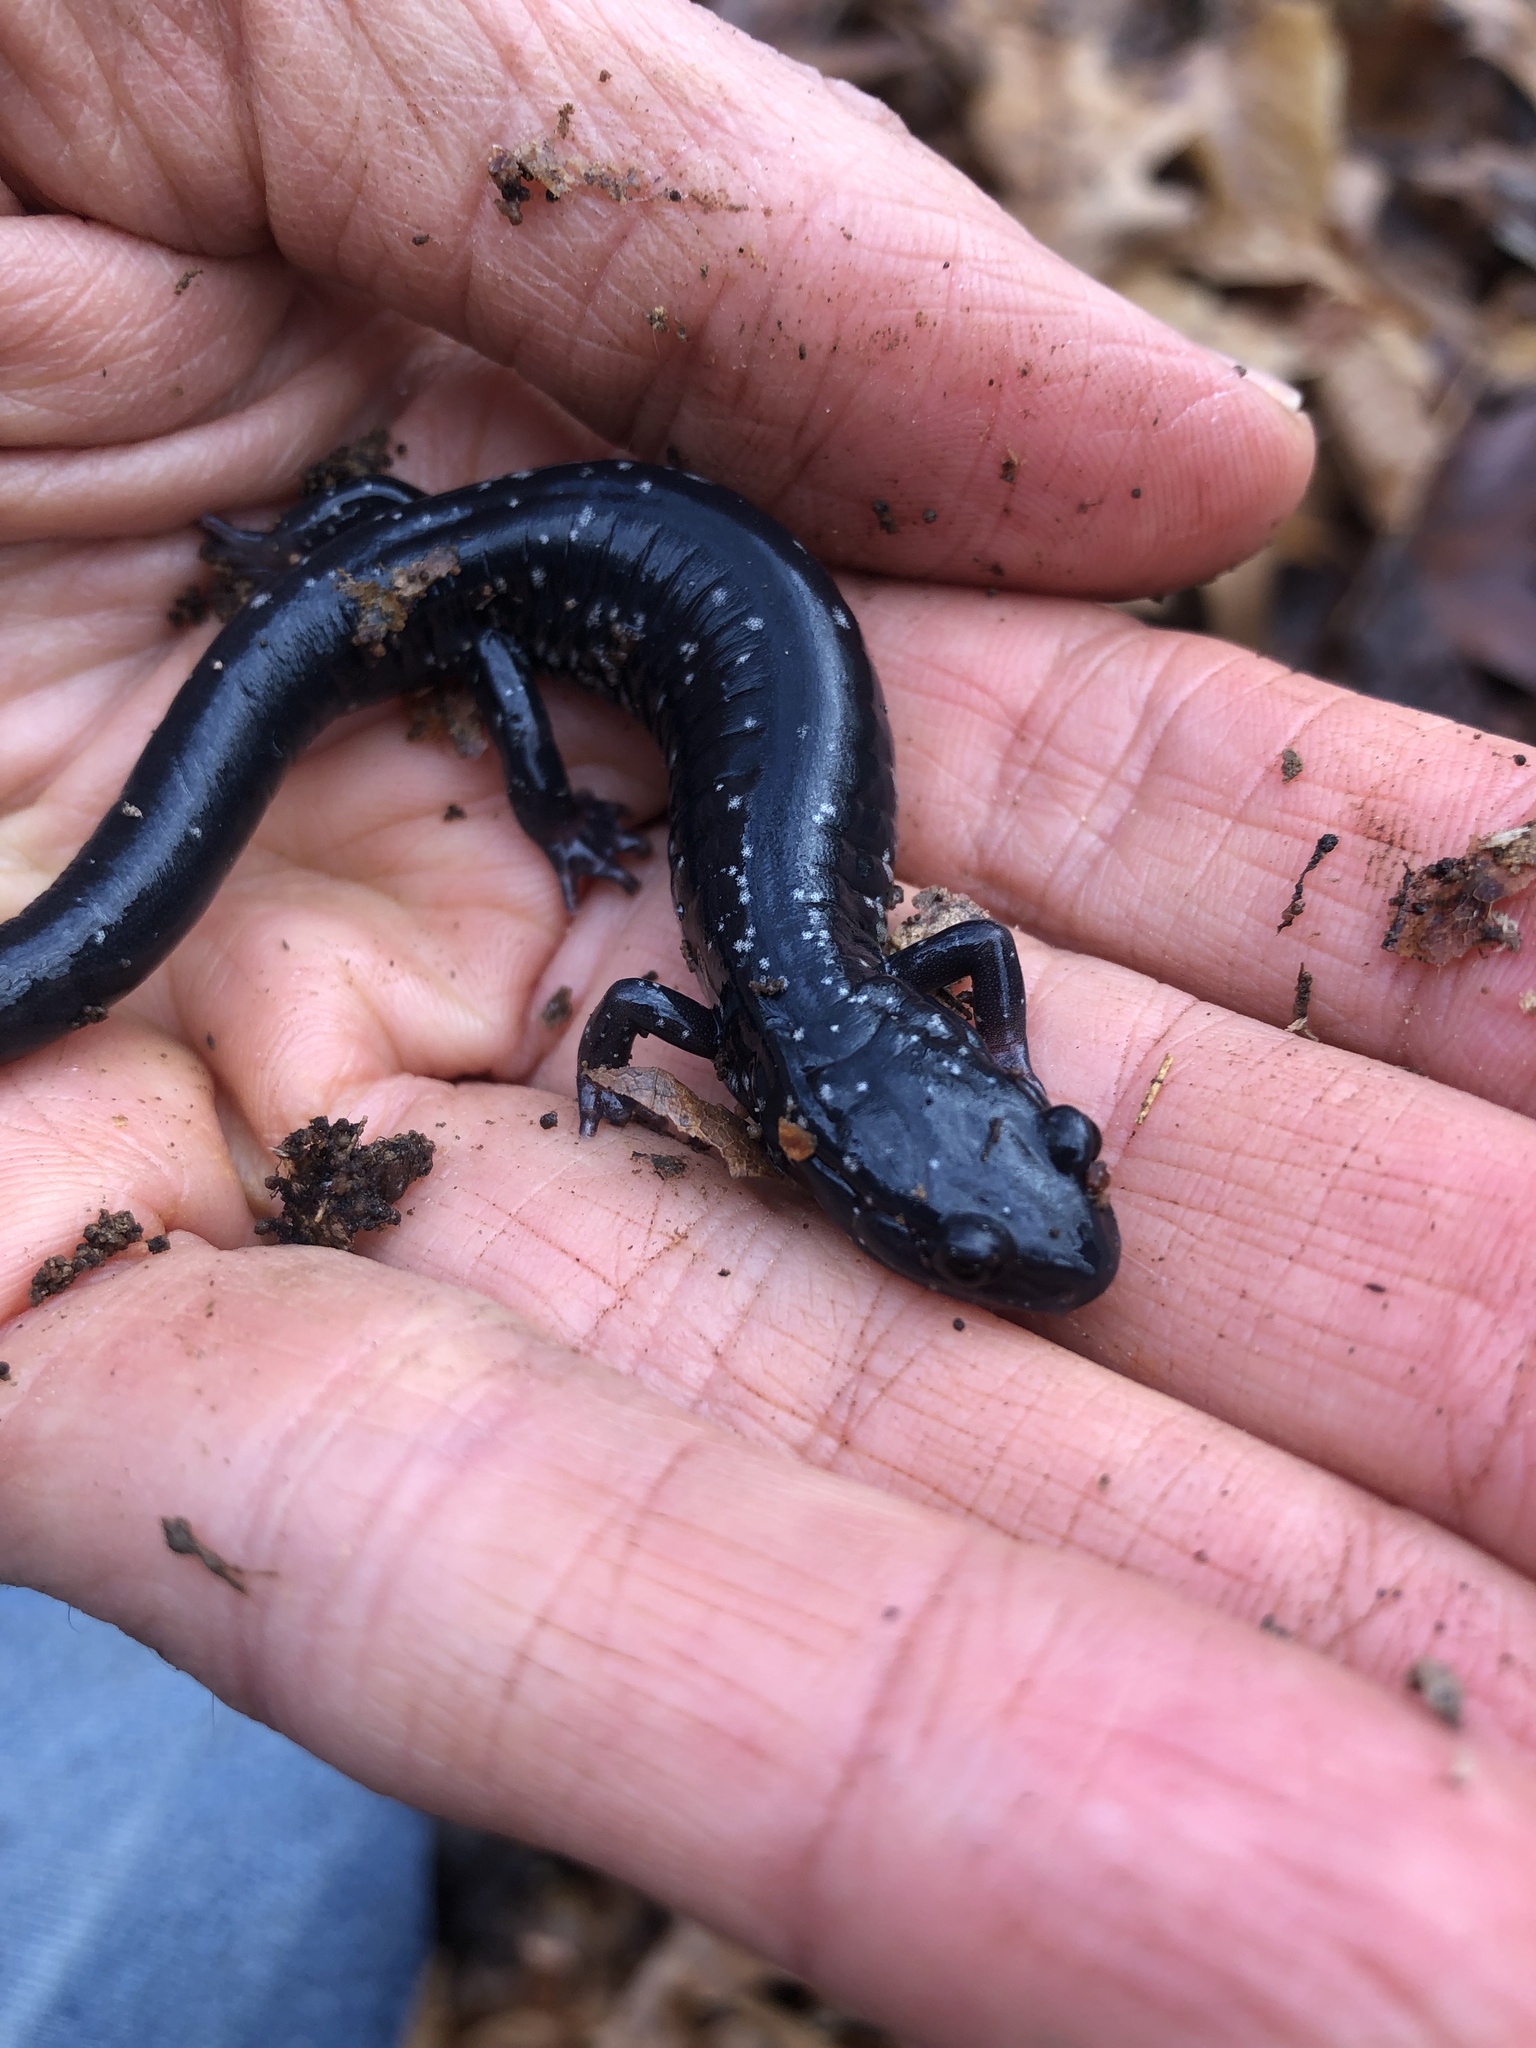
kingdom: Animalia
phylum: Chordata
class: Amphibia
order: Caudata
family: Plethodontidae
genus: Plethodon
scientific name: Plethodon cylindraceus
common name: White-spotted slimy salamander
